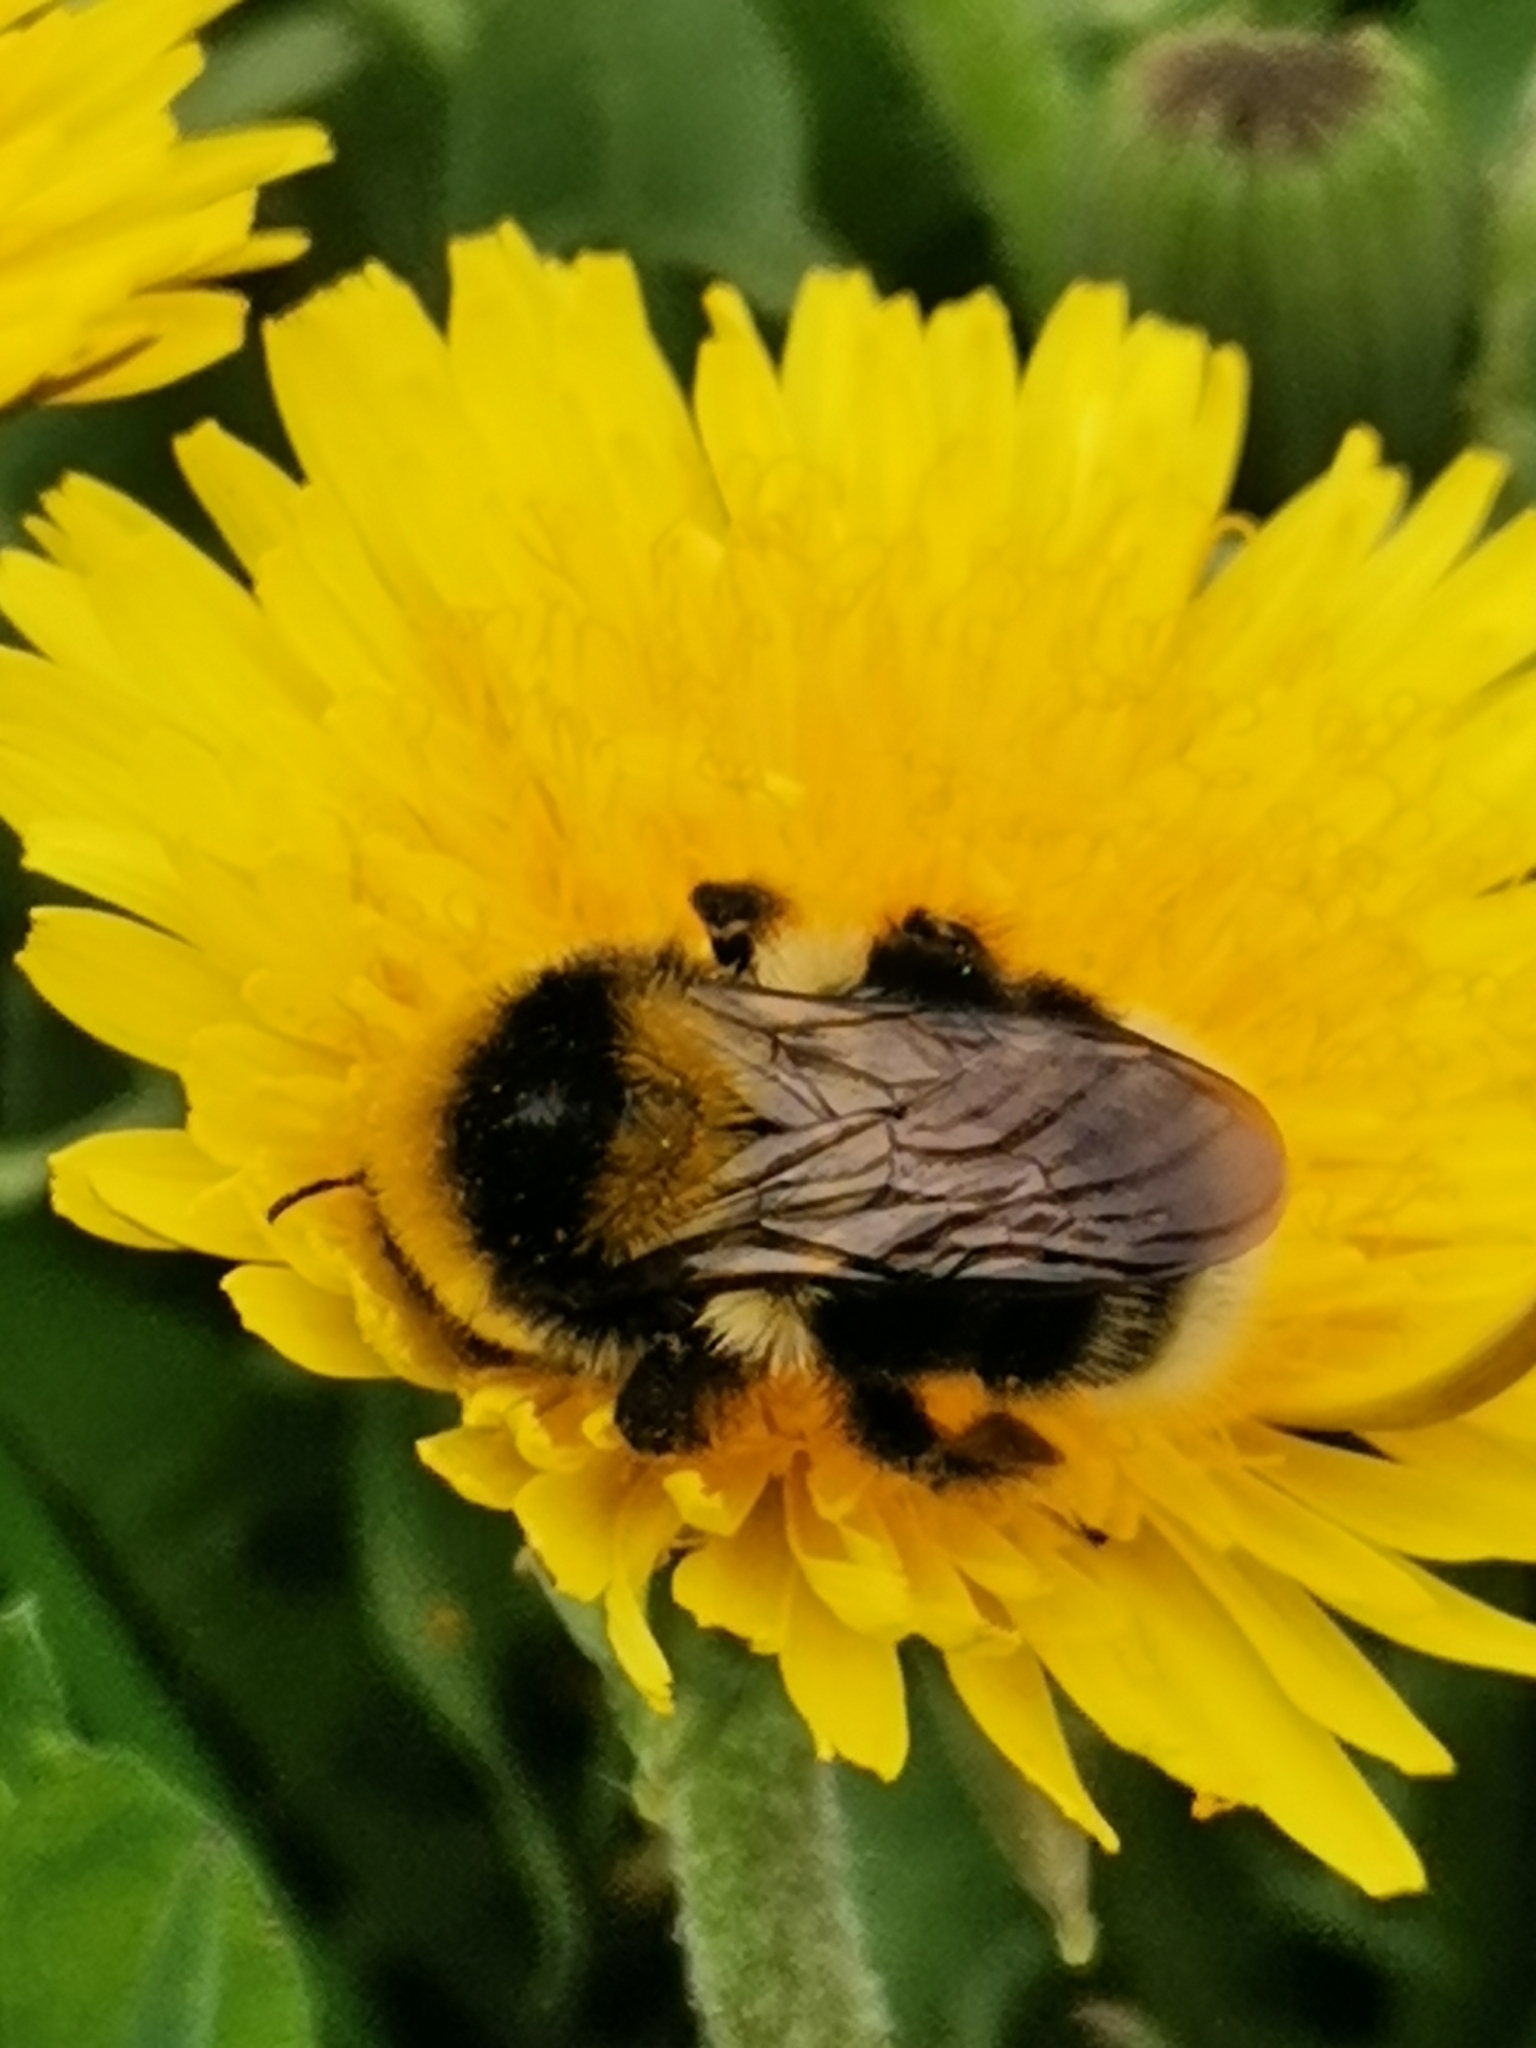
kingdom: Animalia
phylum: Arthropoda
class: Insecta
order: Hymenoptera
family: Apidae
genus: Bombus
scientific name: Bombus semenoviellus
